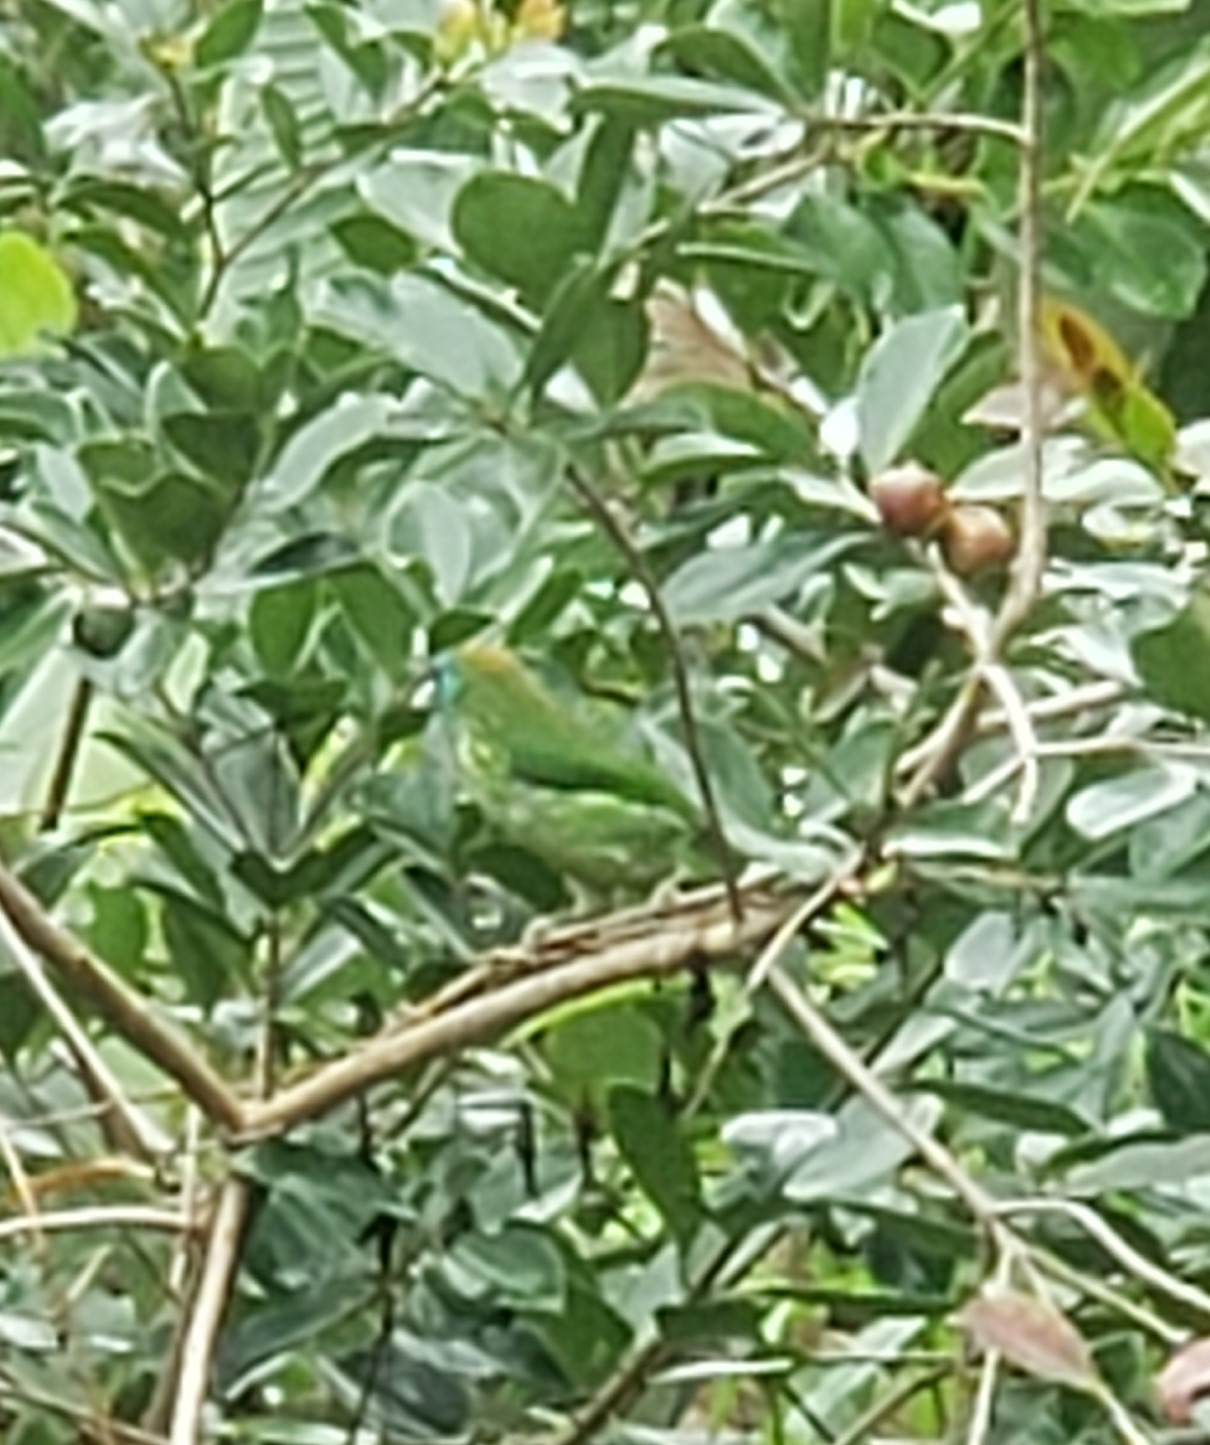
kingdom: Animalia
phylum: Chordata
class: Aves
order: Piciformes
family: Megalaimidae
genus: Psilopogon
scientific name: Psilopogon flavifrons
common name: Yellow-fronted barbet
